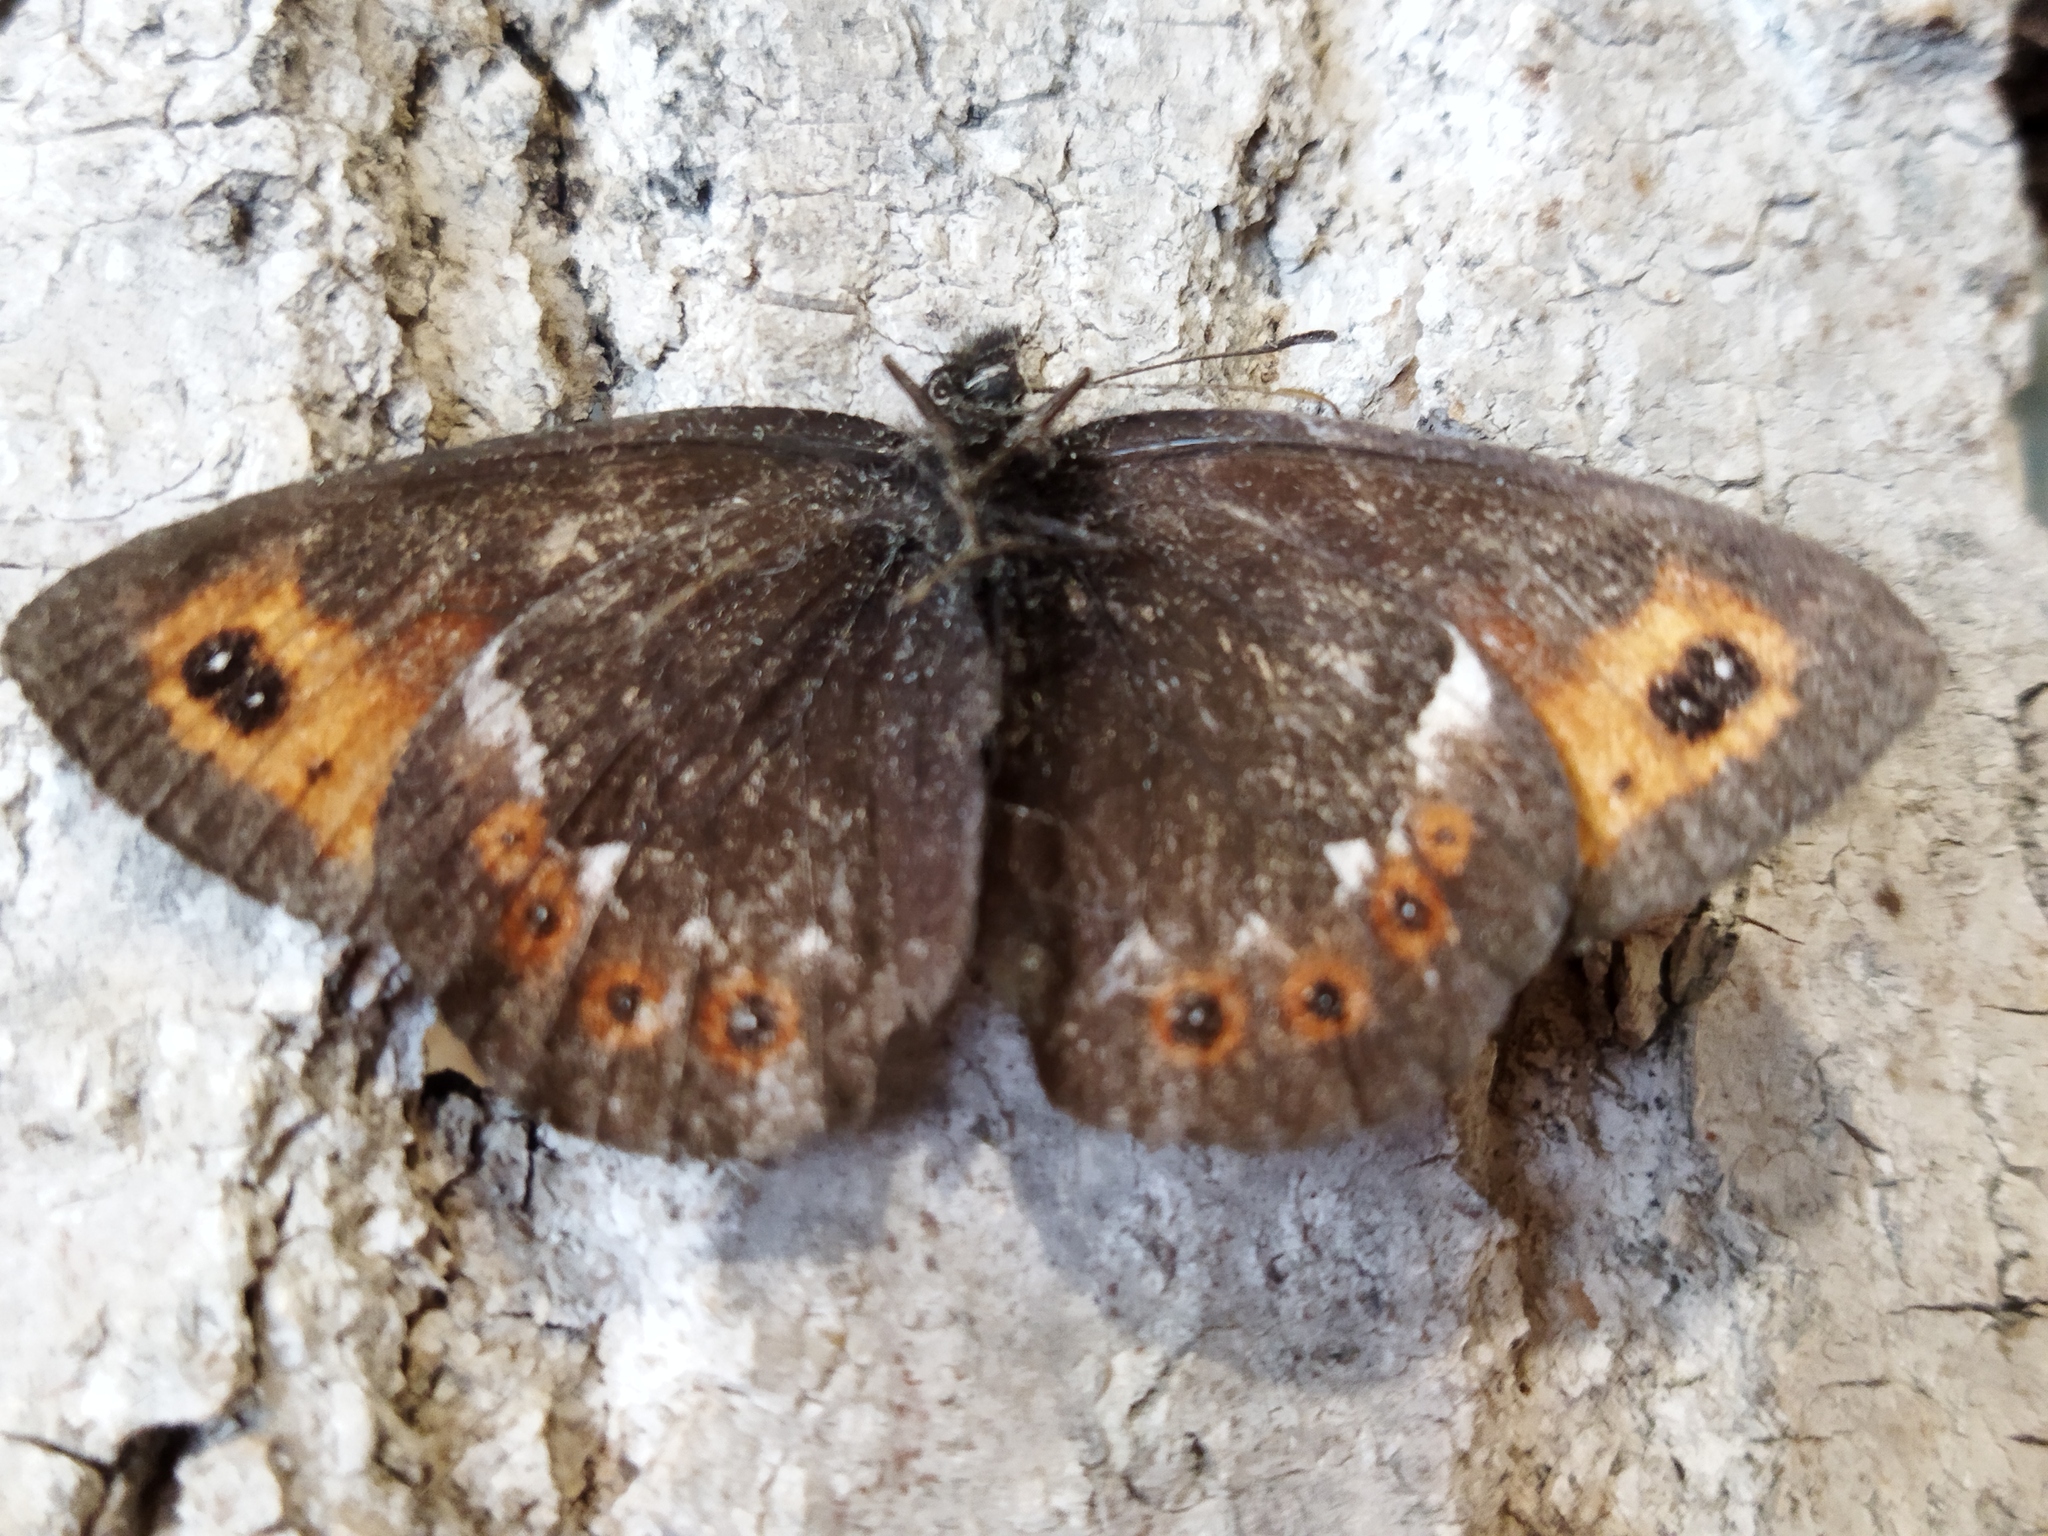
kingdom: Animalia
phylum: Arthropoda
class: Insecta
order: Lepidoptera
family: Nymphalidae
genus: Erebia
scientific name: Erebia ligea
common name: Arran brown
